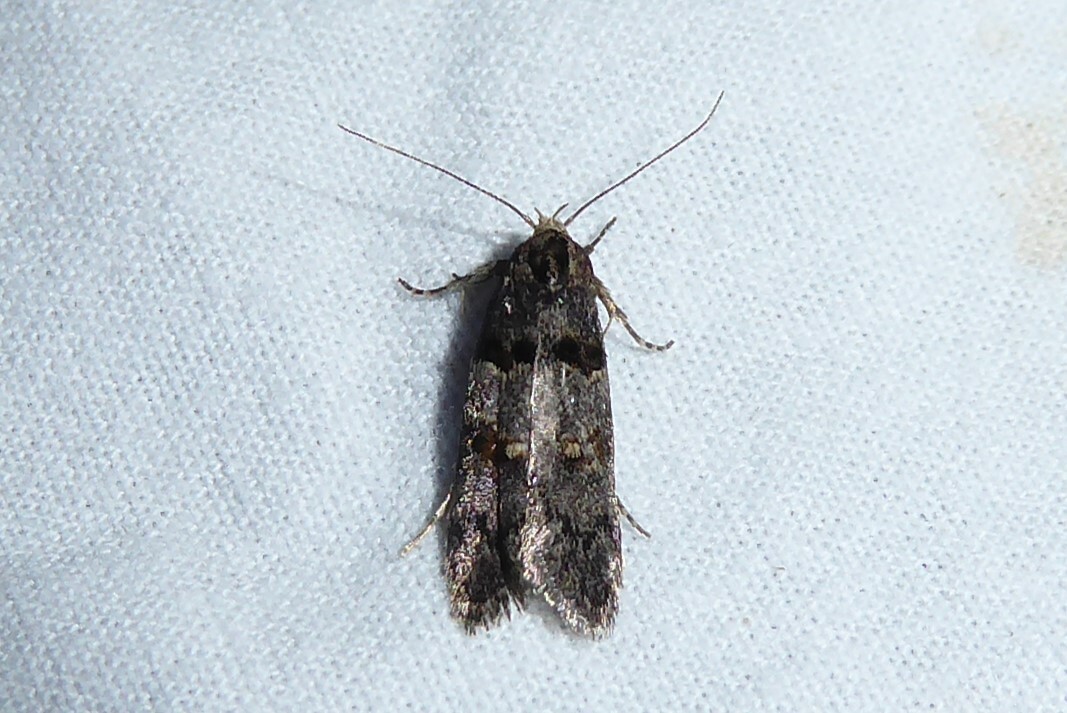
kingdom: Animalia
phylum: Arthropoda
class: Insecta
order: Lepidoptera
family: Oecophoridae
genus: Trachypepla
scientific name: Trachypepla contritella
